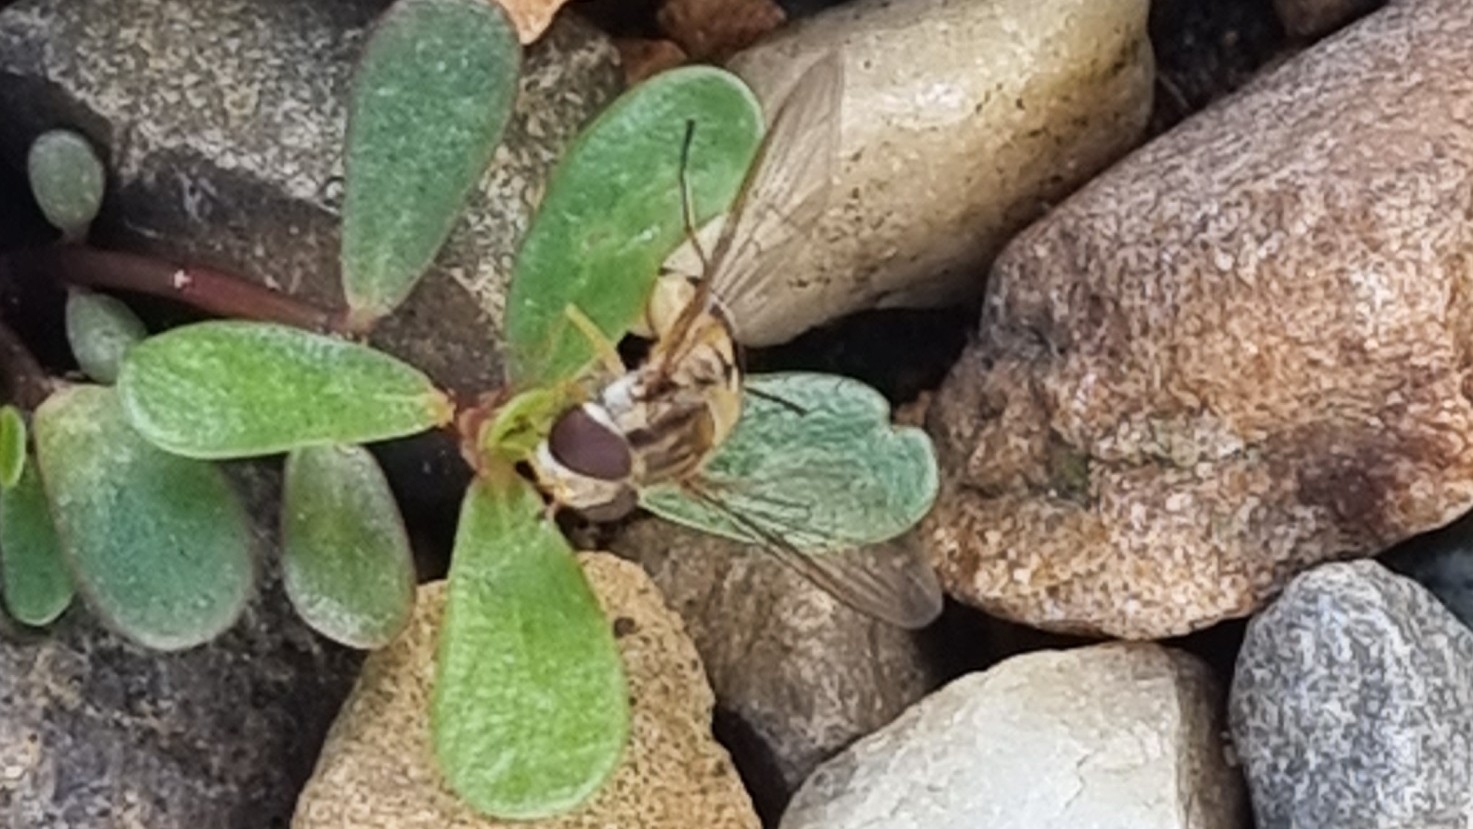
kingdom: Animalia
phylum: Arthropoda
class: Insecta
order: Diptera
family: Syrphidae
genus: Episyrphus
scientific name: Episyrphus balteatus
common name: Marmalade hoverfly
